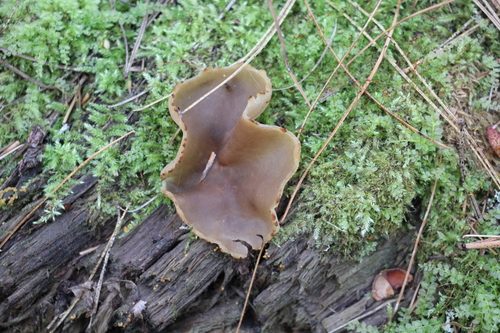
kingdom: Fungi
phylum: Ascomycota
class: Pezizomycetes
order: Pezizales
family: Pezizaceae
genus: Peziza
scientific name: Peziza varia
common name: Layered cup
